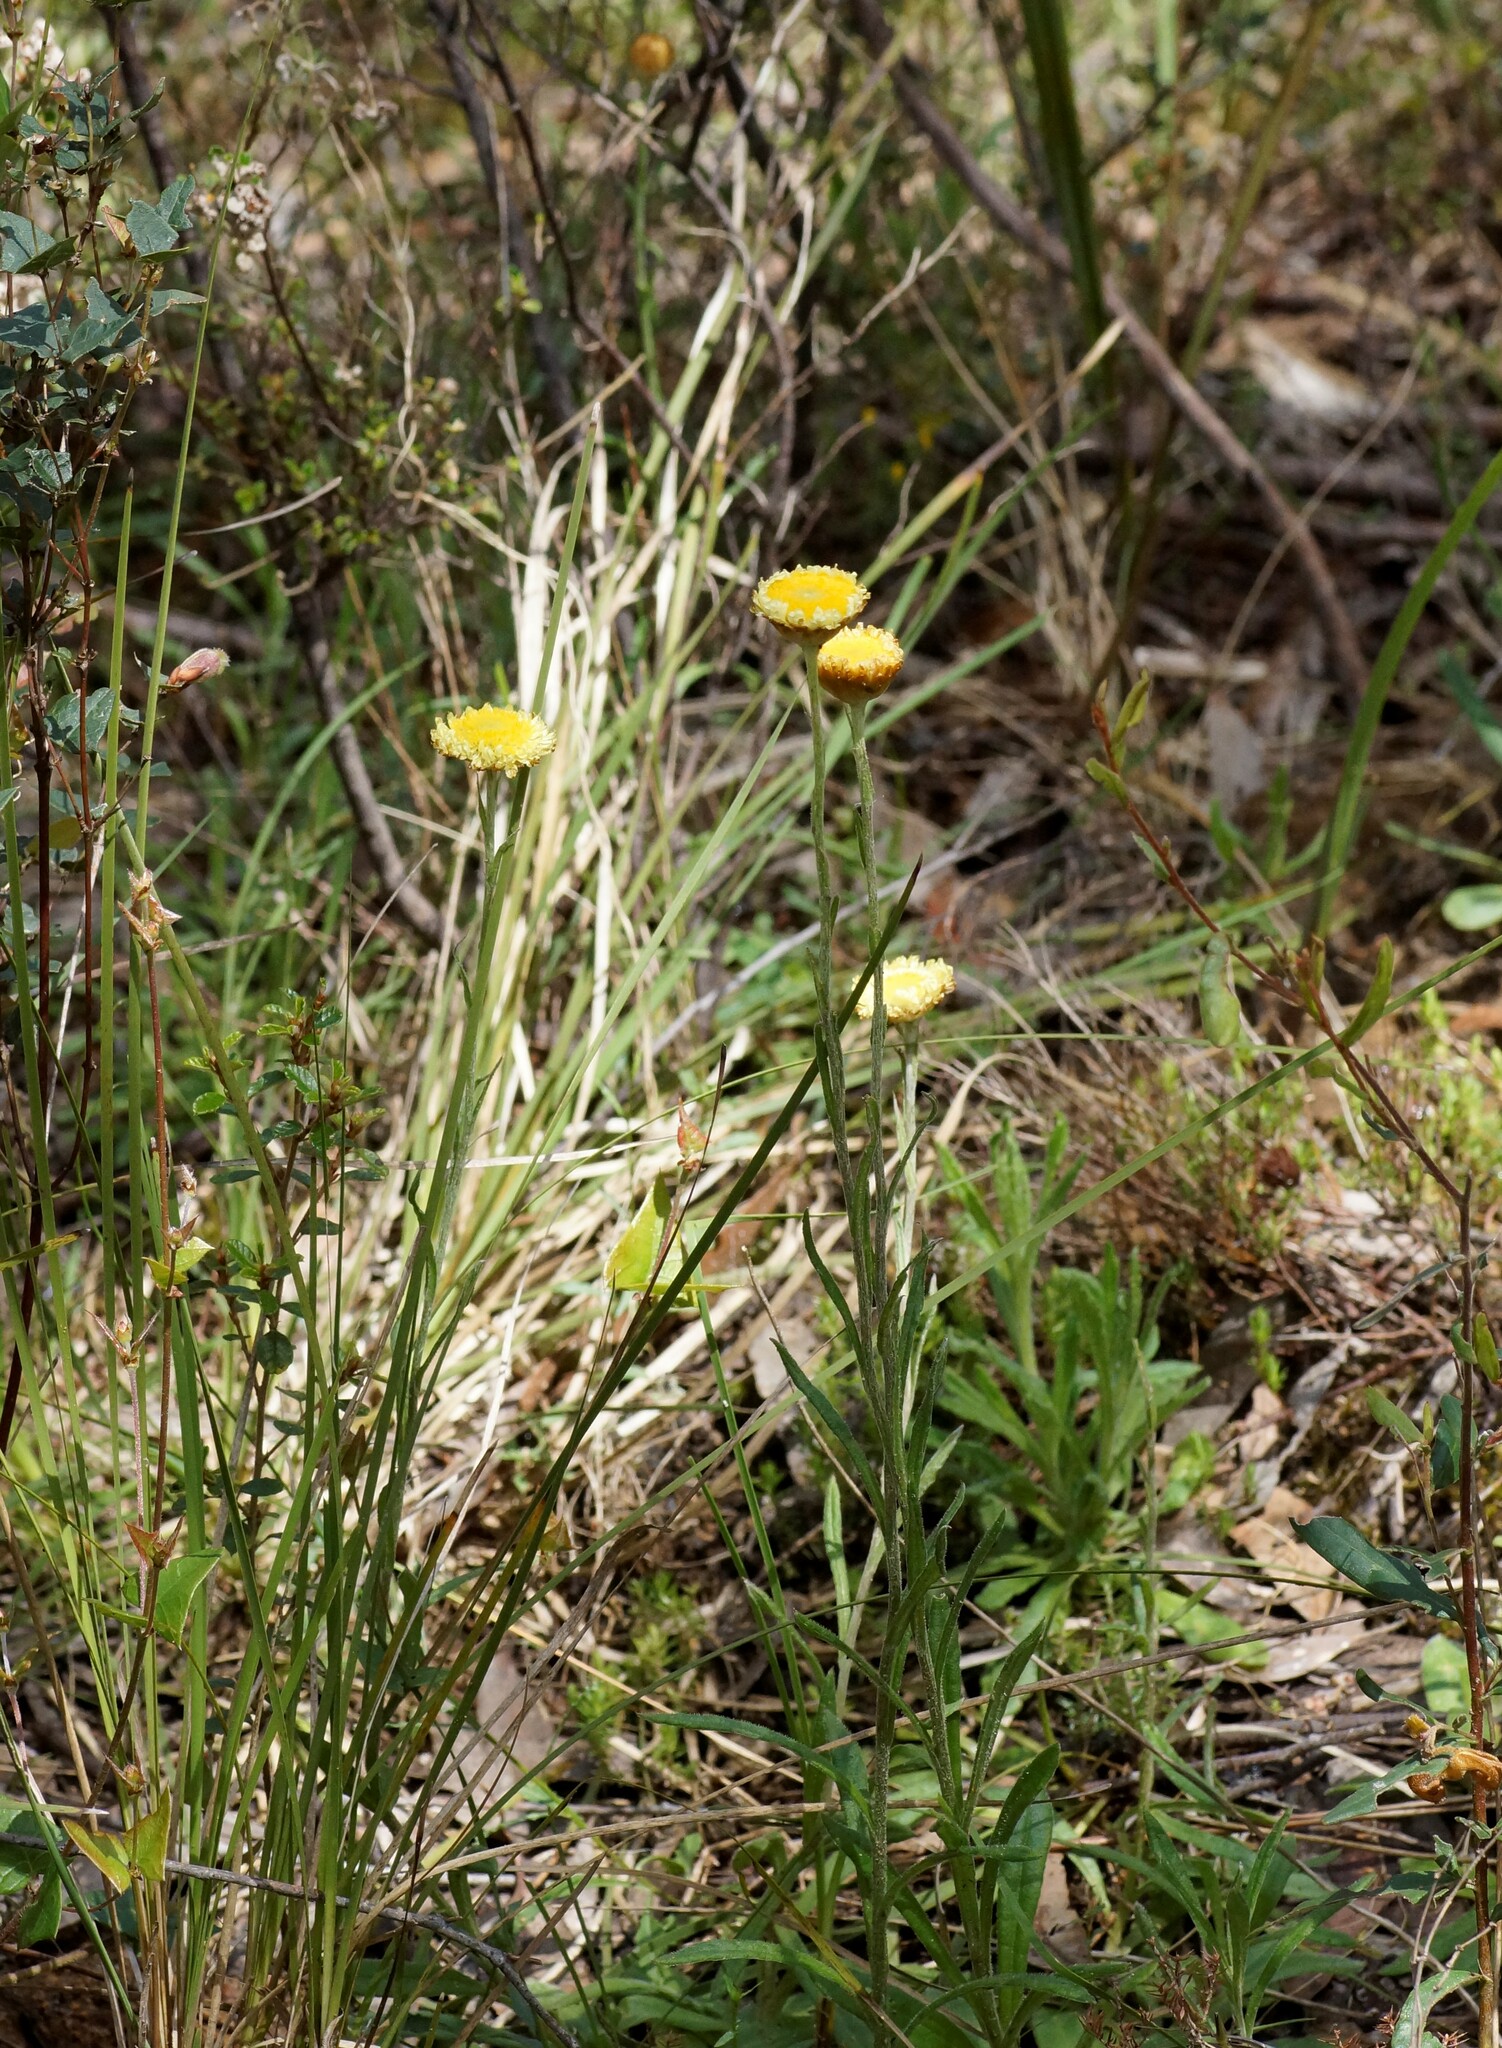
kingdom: Plantae
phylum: Tracheophyta
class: Magnoliopsida
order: Asterales
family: Asteraceae
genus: Coronidium
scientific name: Coronidium scorpioides
